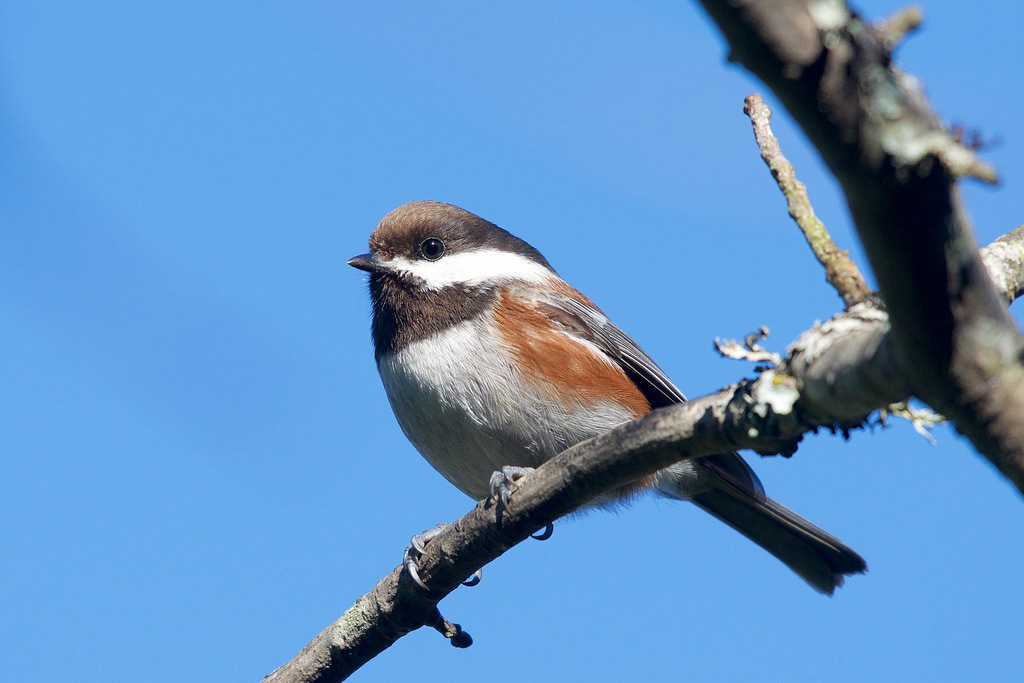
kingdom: Animalia
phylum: Chordata
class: Aves
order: Passeriformes
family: Paridae
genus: Poecile
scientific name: Poecile rufescens
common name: Chestnut-backed chickadee
